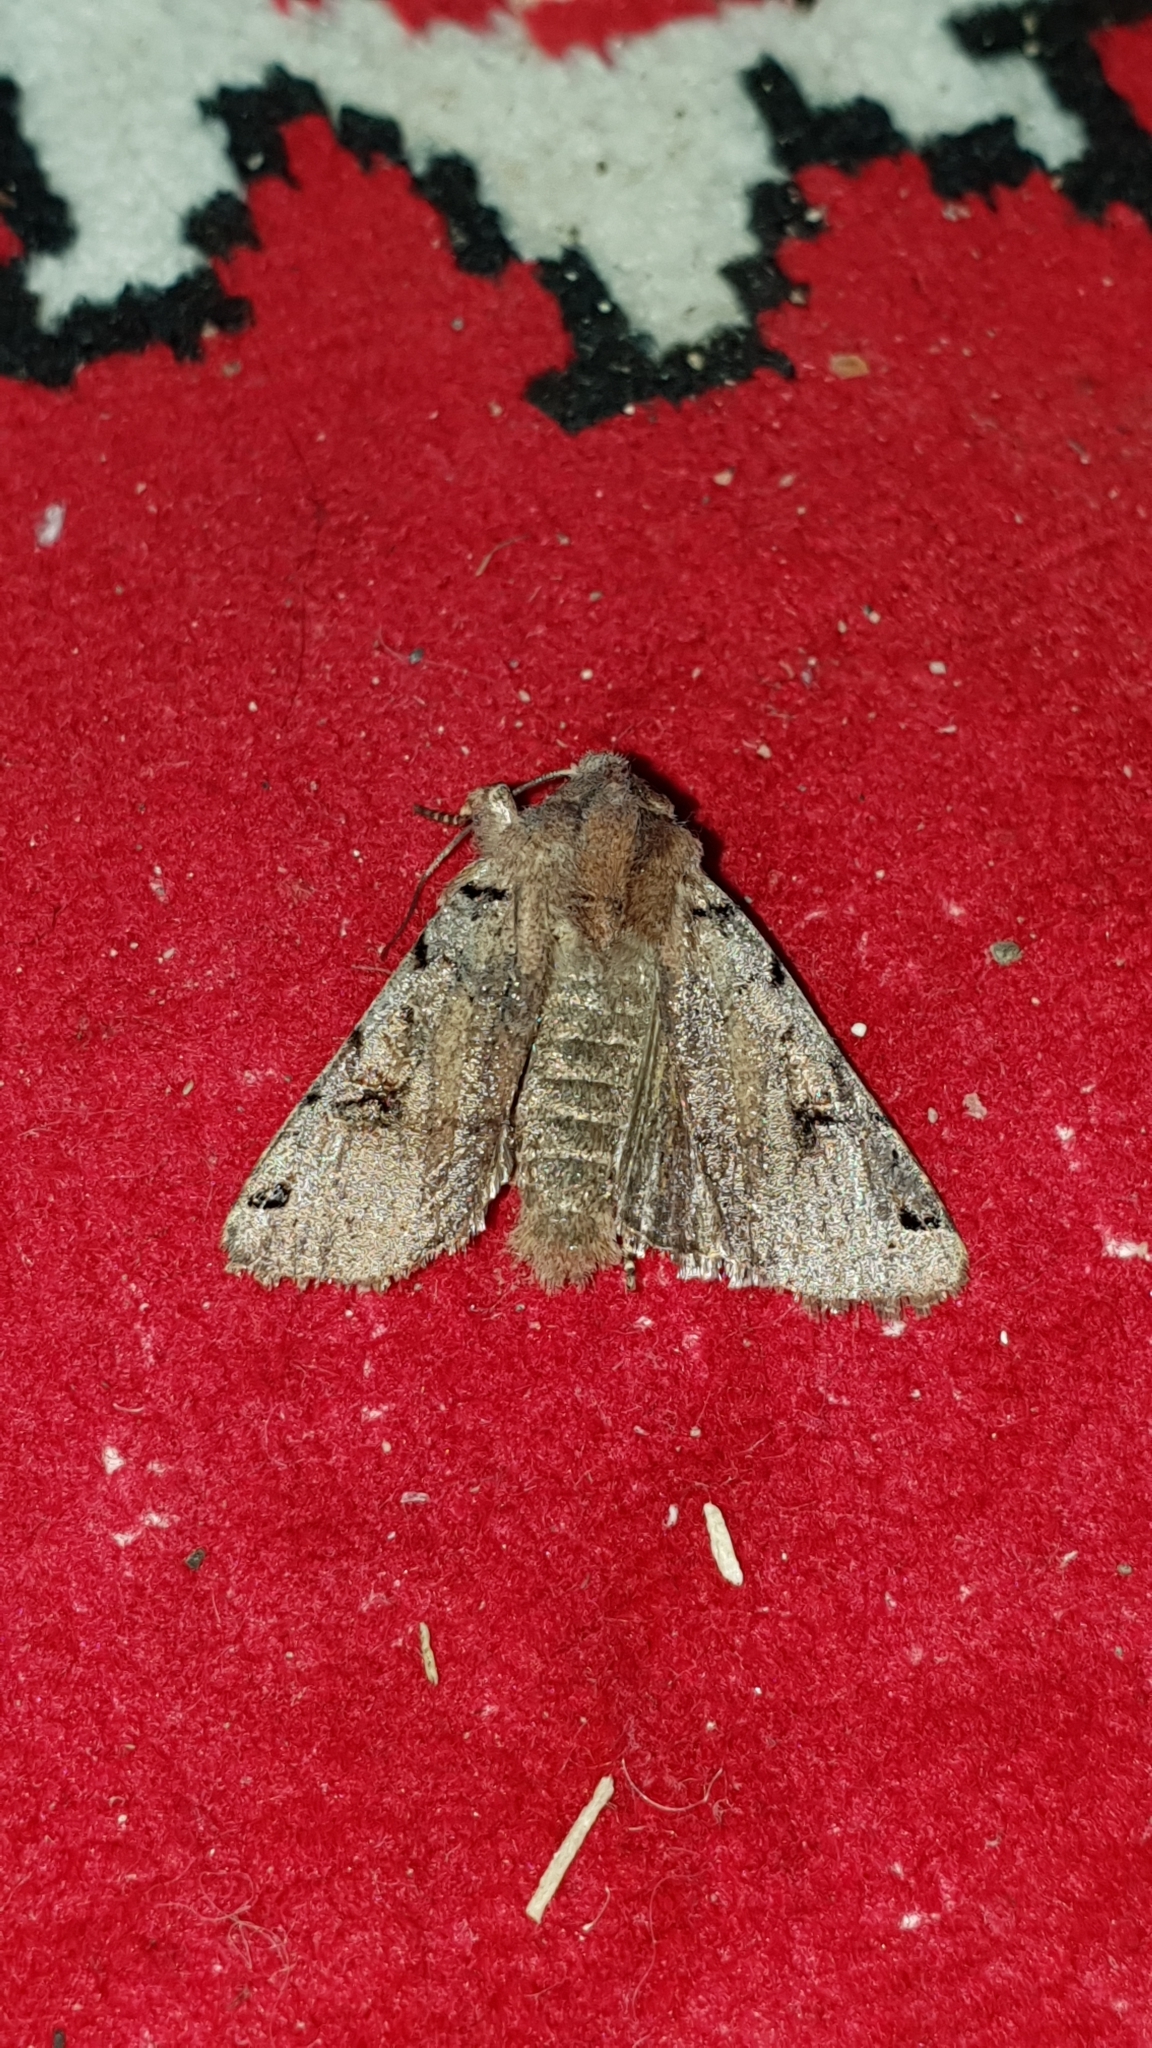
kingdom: Animalia
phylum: Arthropoda
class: Insecta
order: Lepidoptera
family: Noctuidae
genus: Agrochola
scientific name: Agrochola litura
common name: Brown-spot pinion
